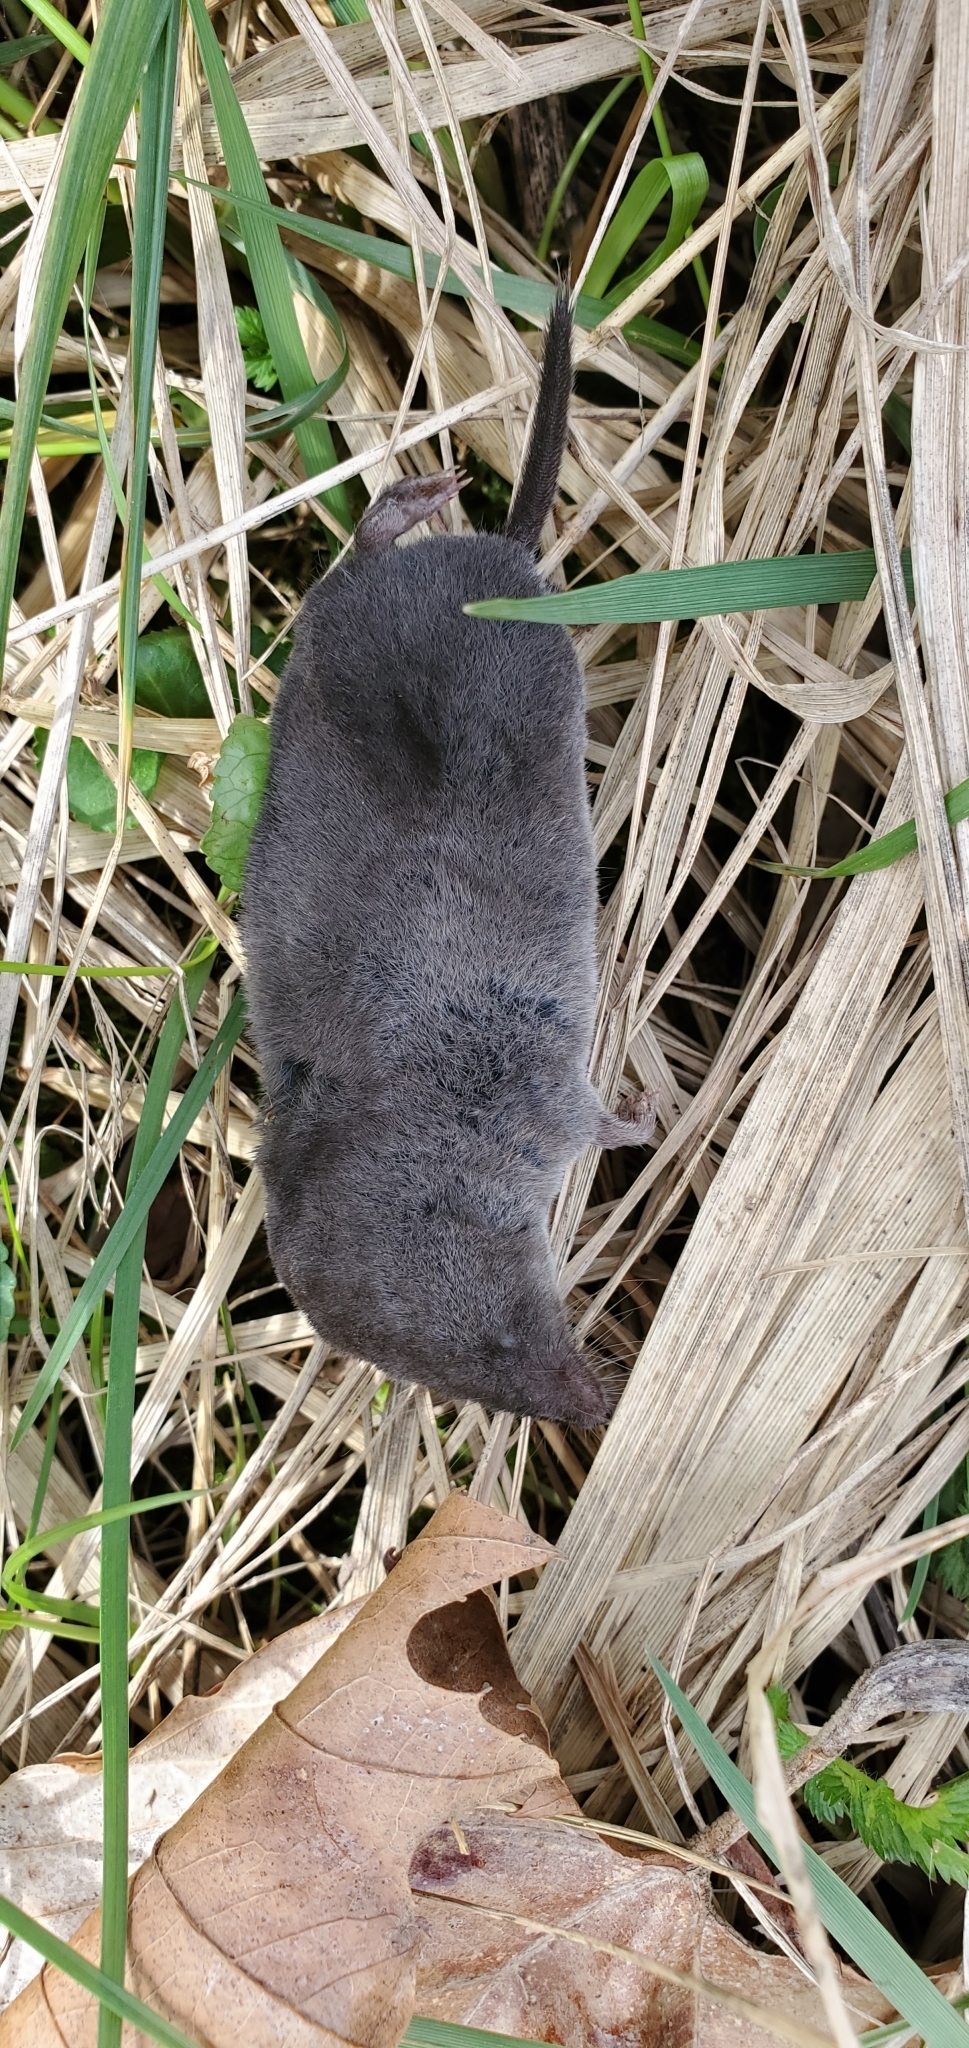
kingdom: Animalia
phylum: Chordata
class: Mammalia
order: Soricomorpha
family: Soricidae
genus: Blarina
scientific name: Blarina brevicauda
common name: Northern short-tailed shrew
